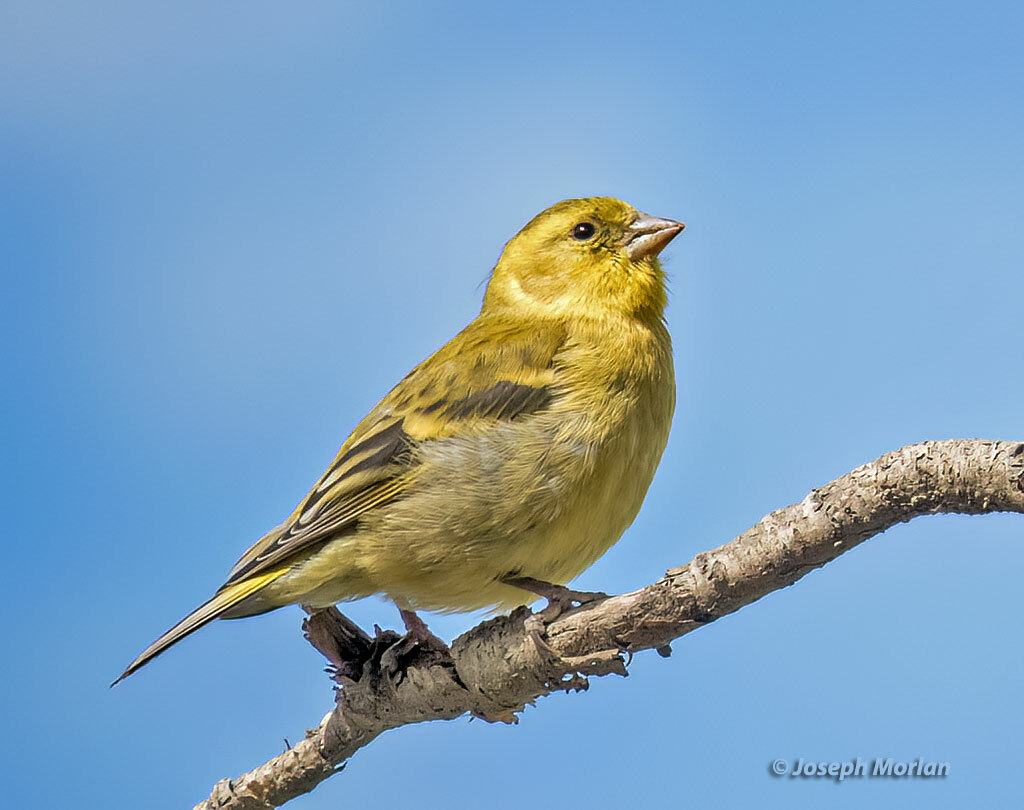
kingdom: Animalia
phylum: Chordata
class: Aves
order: Passeriformes
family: Fringillidae
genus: Spinus
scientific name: Spinus barbatus
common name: Black-chinned siskin
